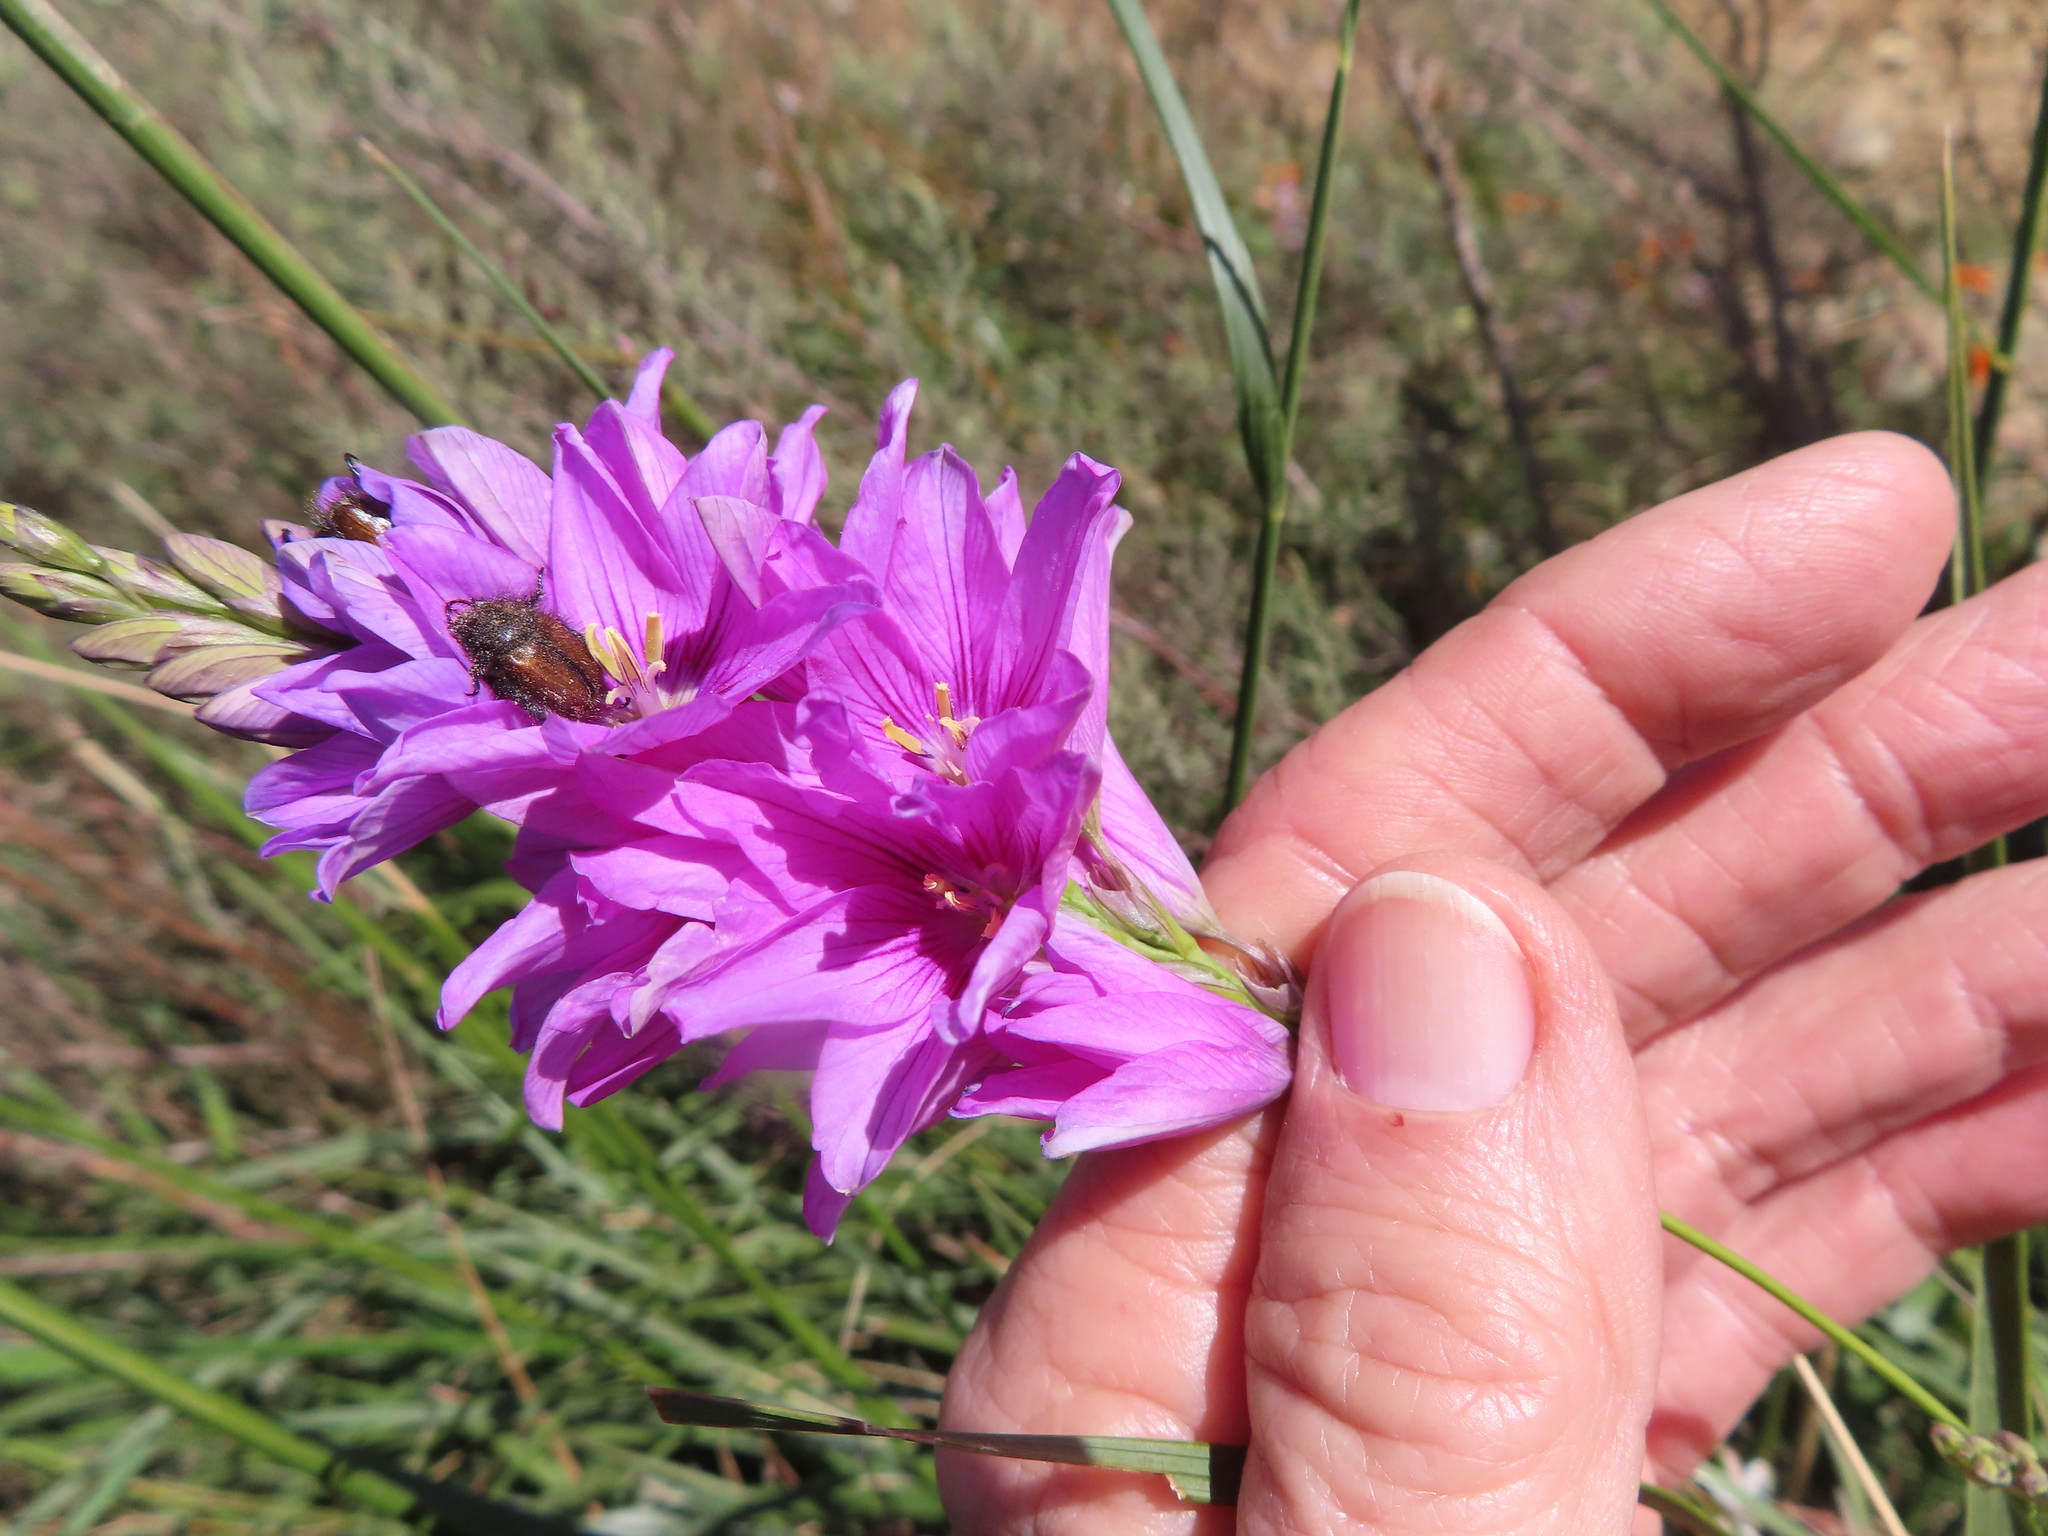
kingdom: Plantae
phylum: Tracheophyta
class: Liliopsida
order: Asparagales
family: Iridaceae
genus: Ixia
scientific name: Ixia patens
